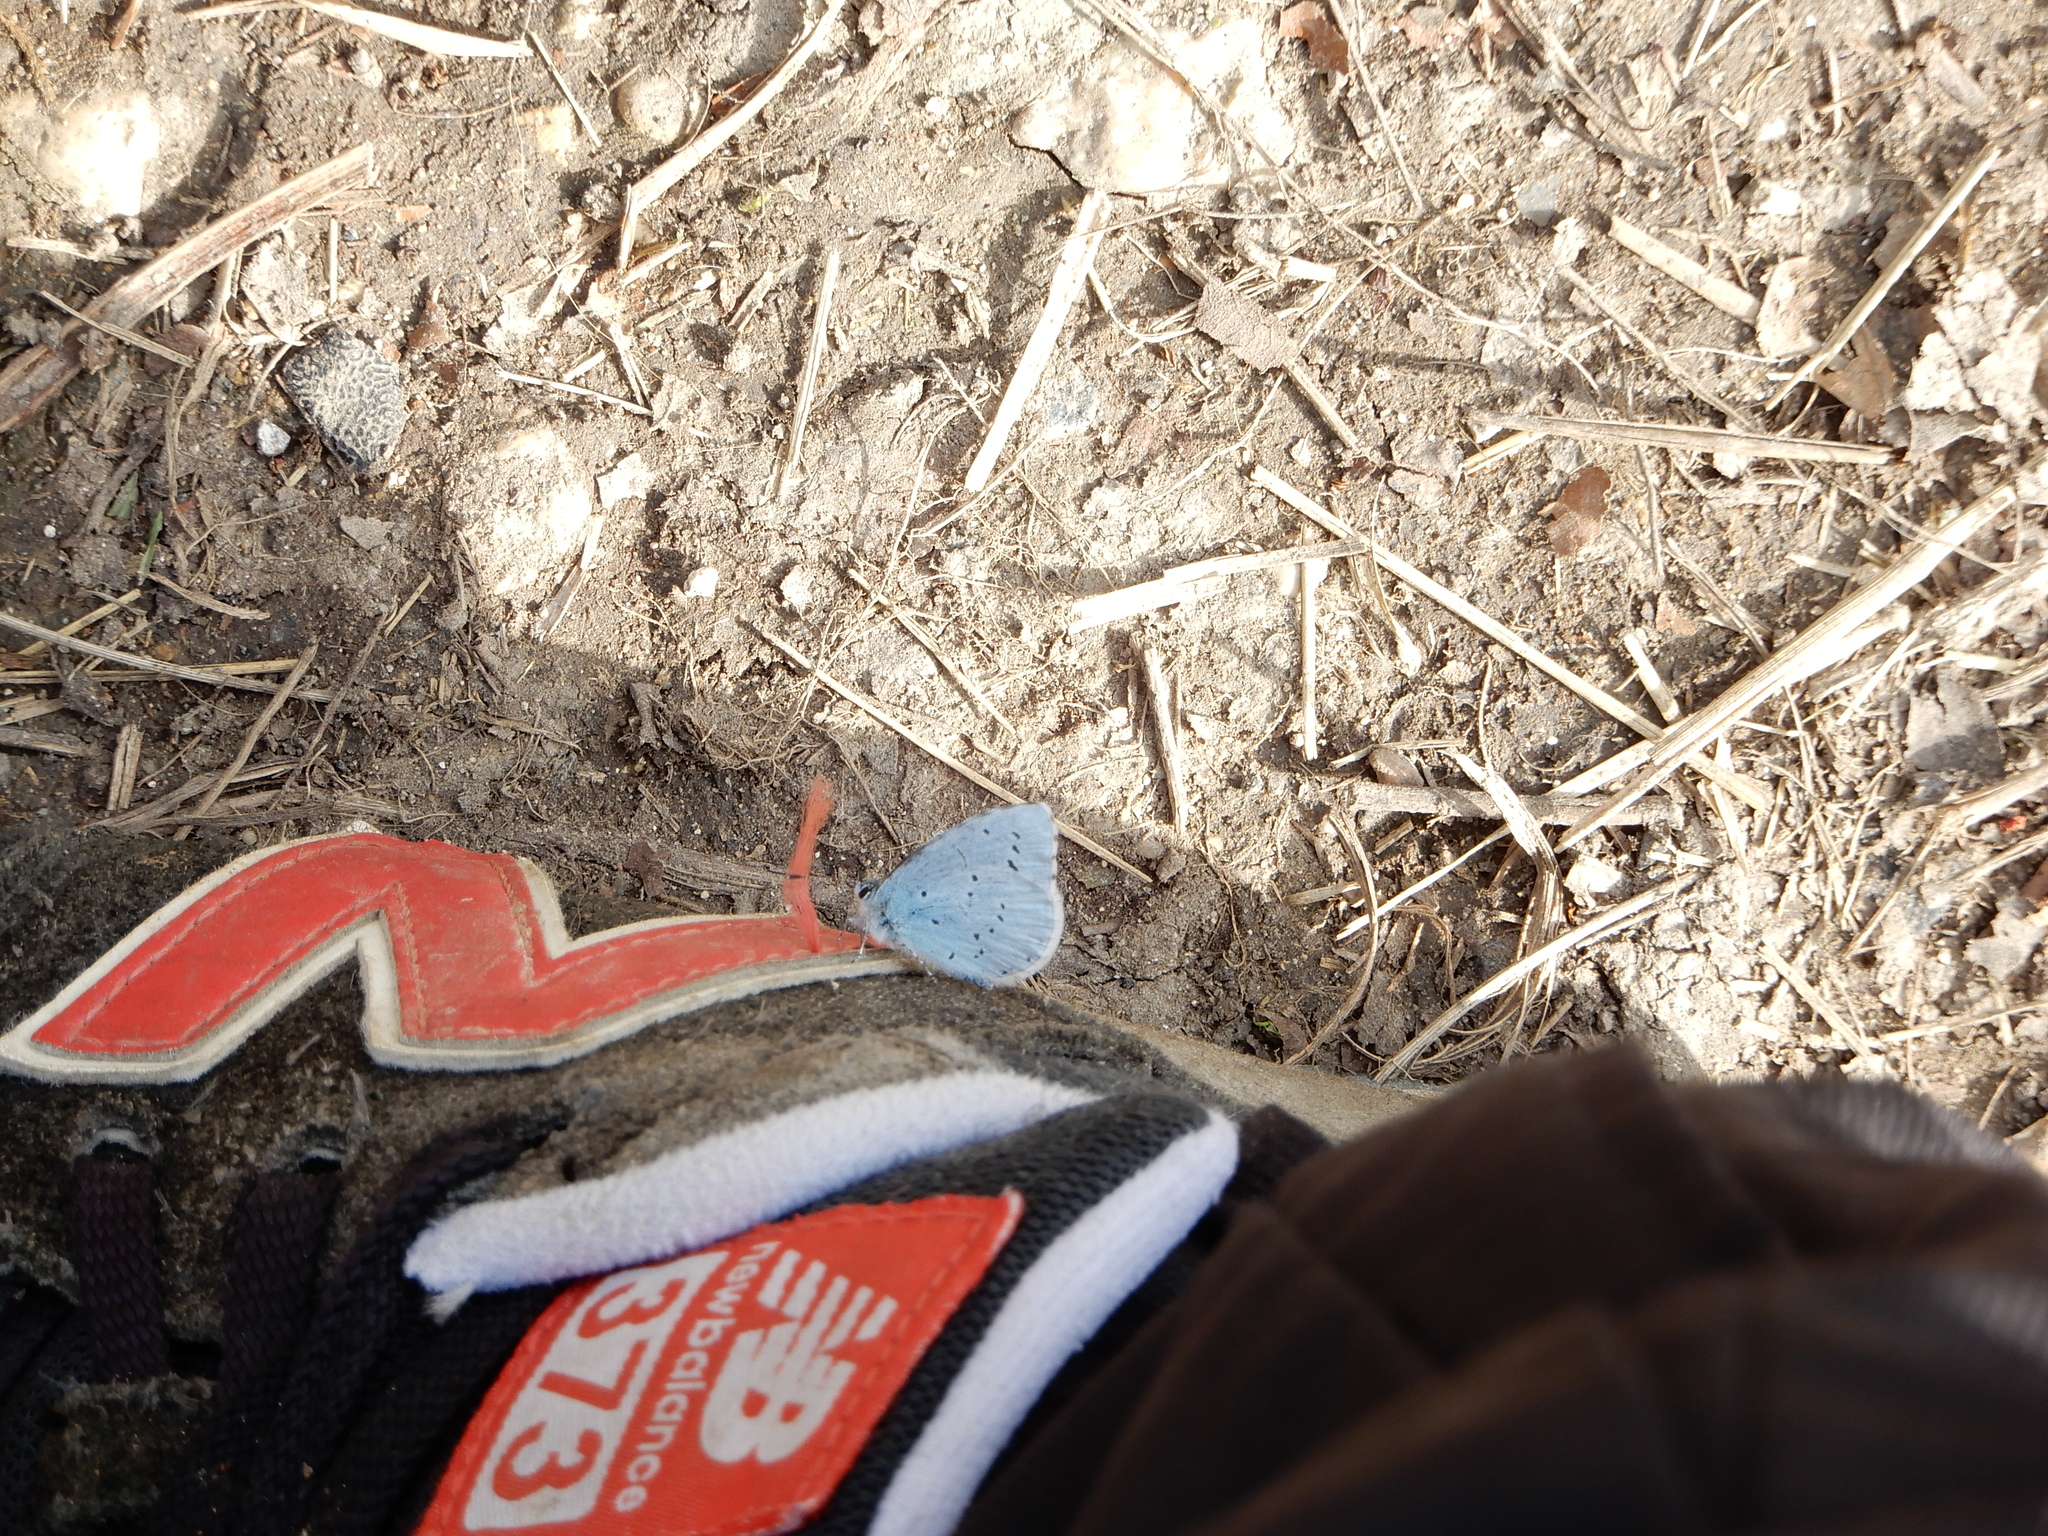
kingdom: Animalia
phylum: Arthropoda
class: Insecta
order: Lepidoptera
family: Lycaenidae
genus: Celastrina
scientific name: Celastrina argiolus
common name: Holly blue
